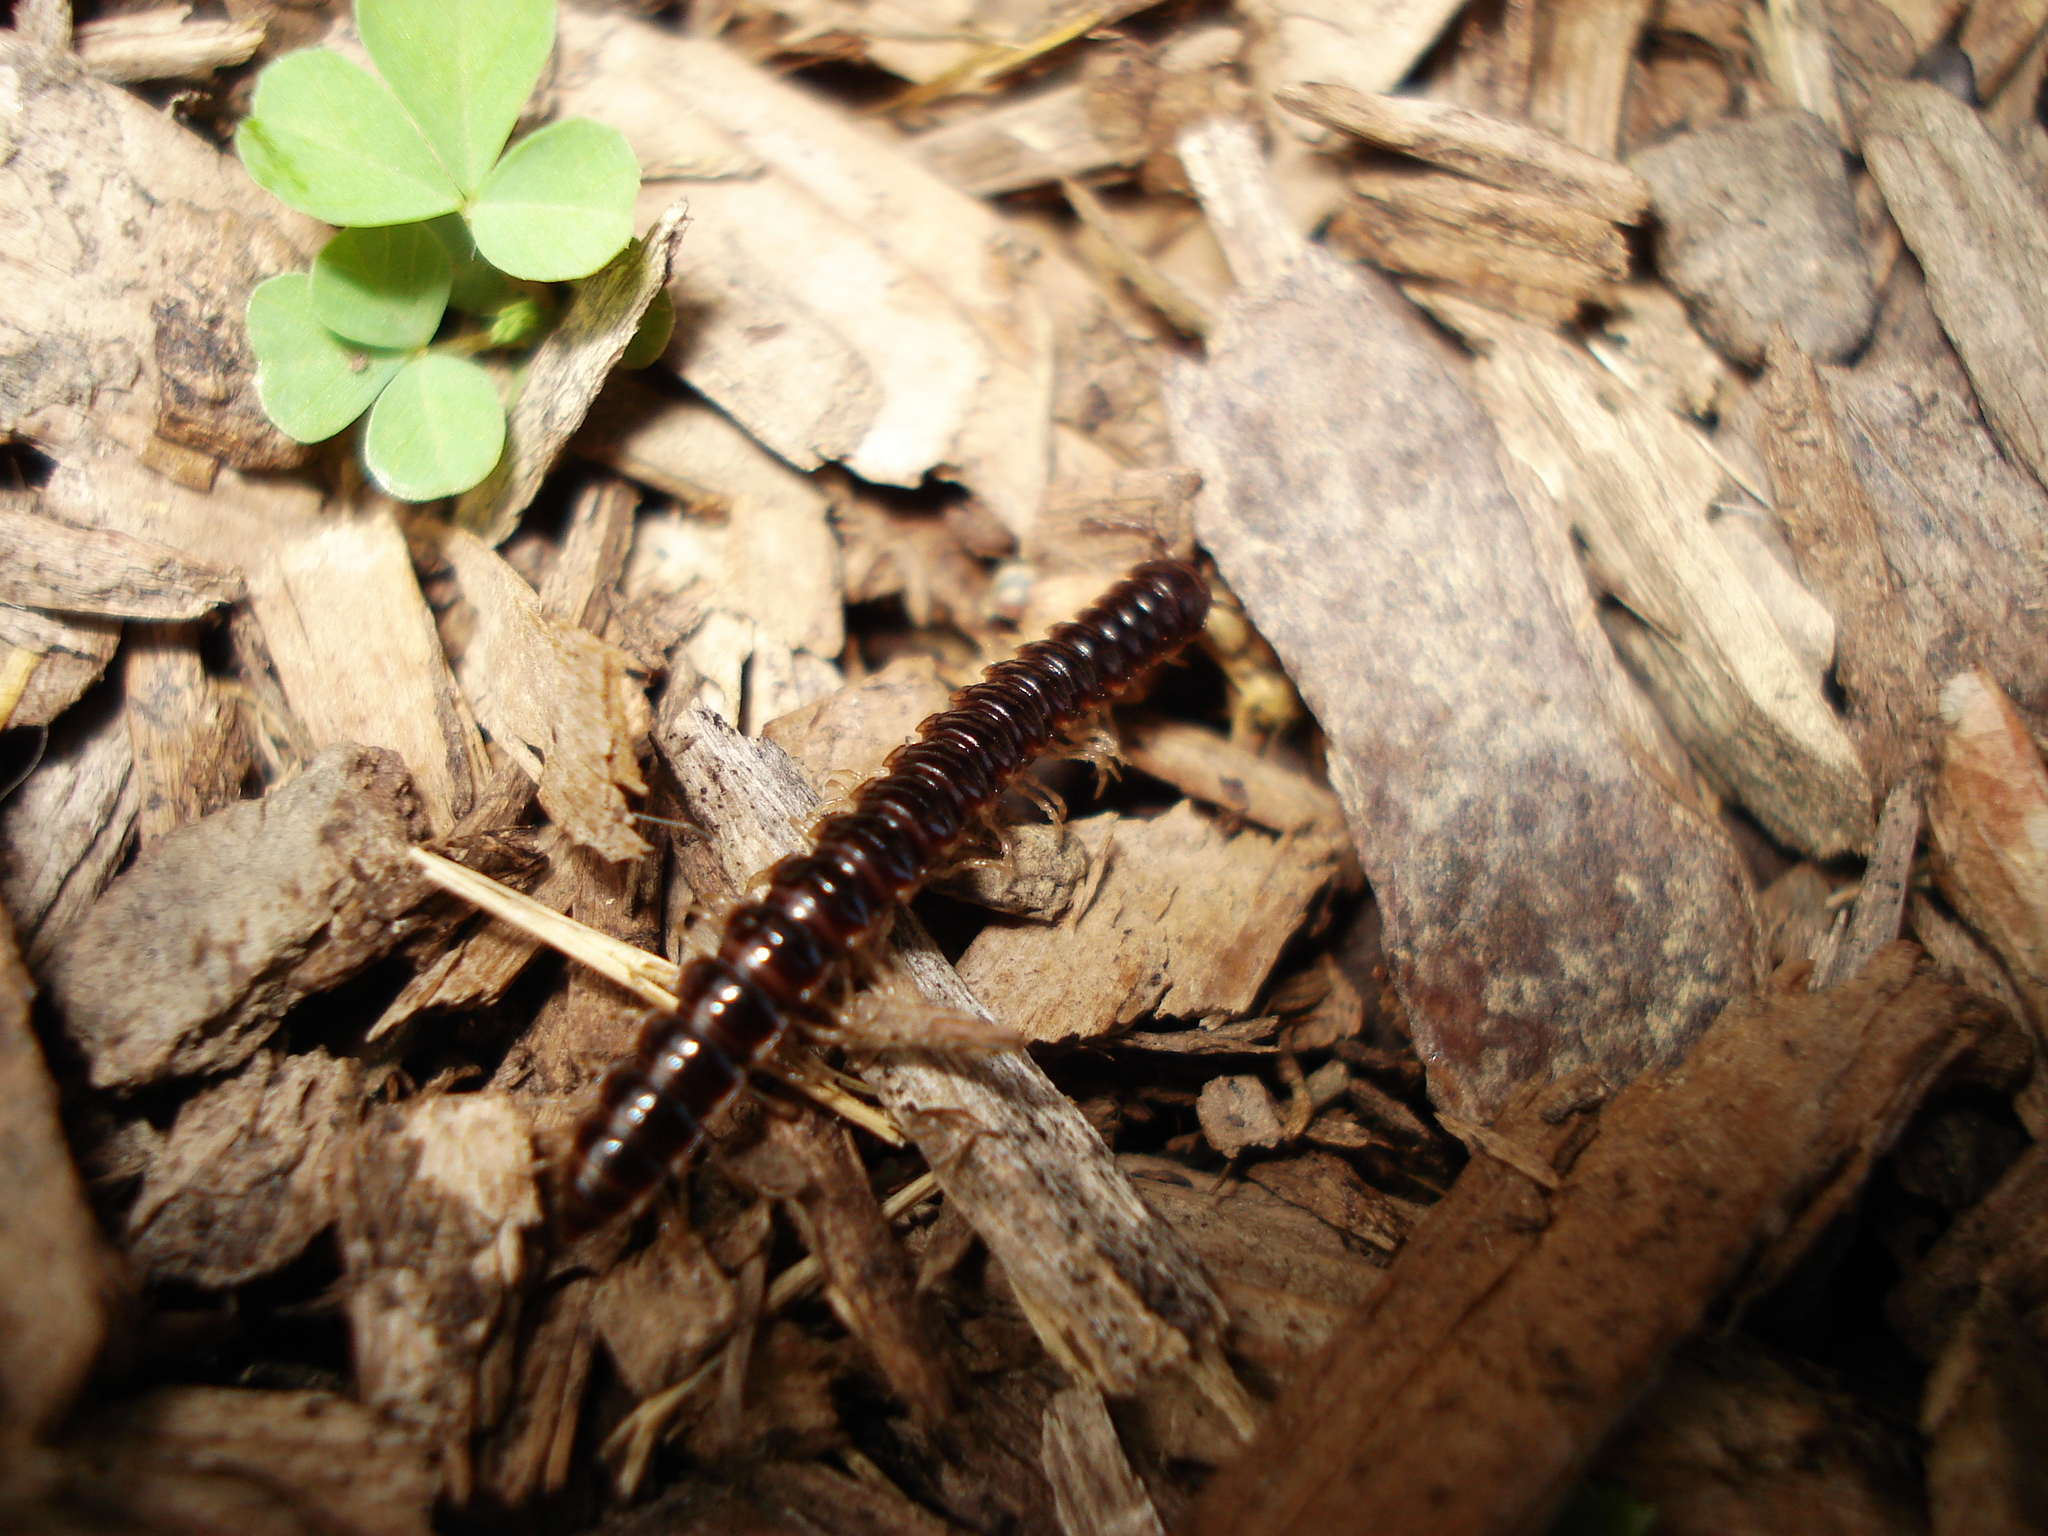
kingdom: Animalia
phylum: Arthropoda
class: Diplopoda
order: Polydesmida
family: Paradoxosomatidae
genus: Oxidus
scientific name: Oxidus gracilis
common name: Greenhouse millipede
